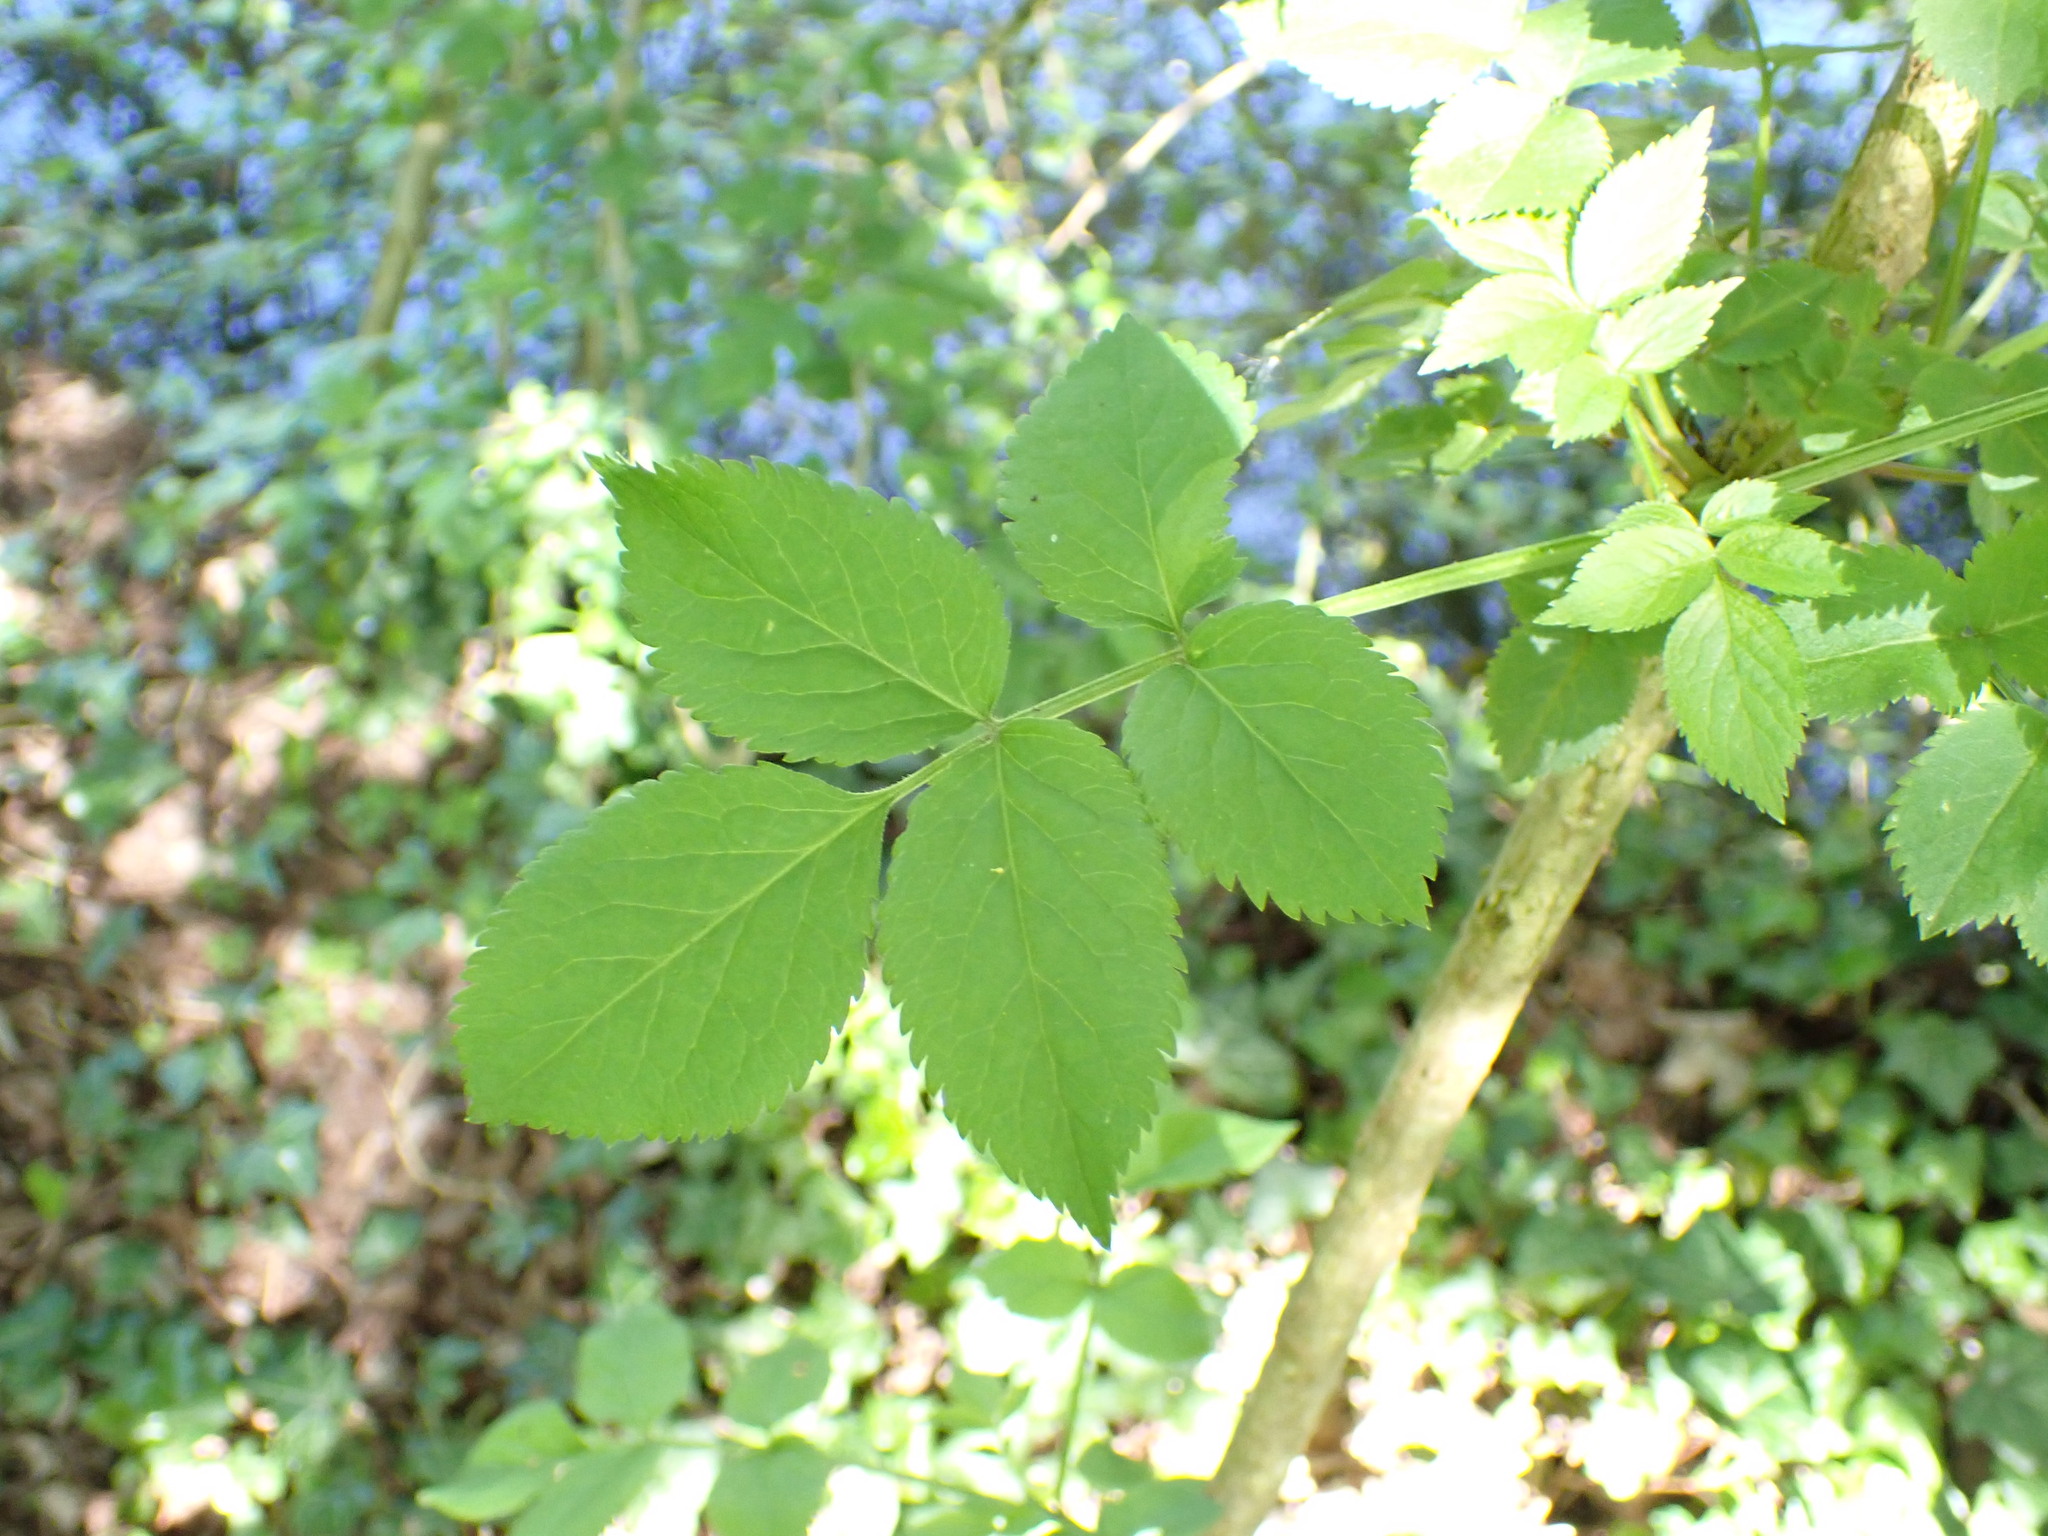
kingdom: Plantae
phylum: Tracheophyta
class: Magnoliopsida
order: Dipsacales
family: Viburnaceae
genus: Sambucus
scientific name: Sambucus nigra
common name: Elder
